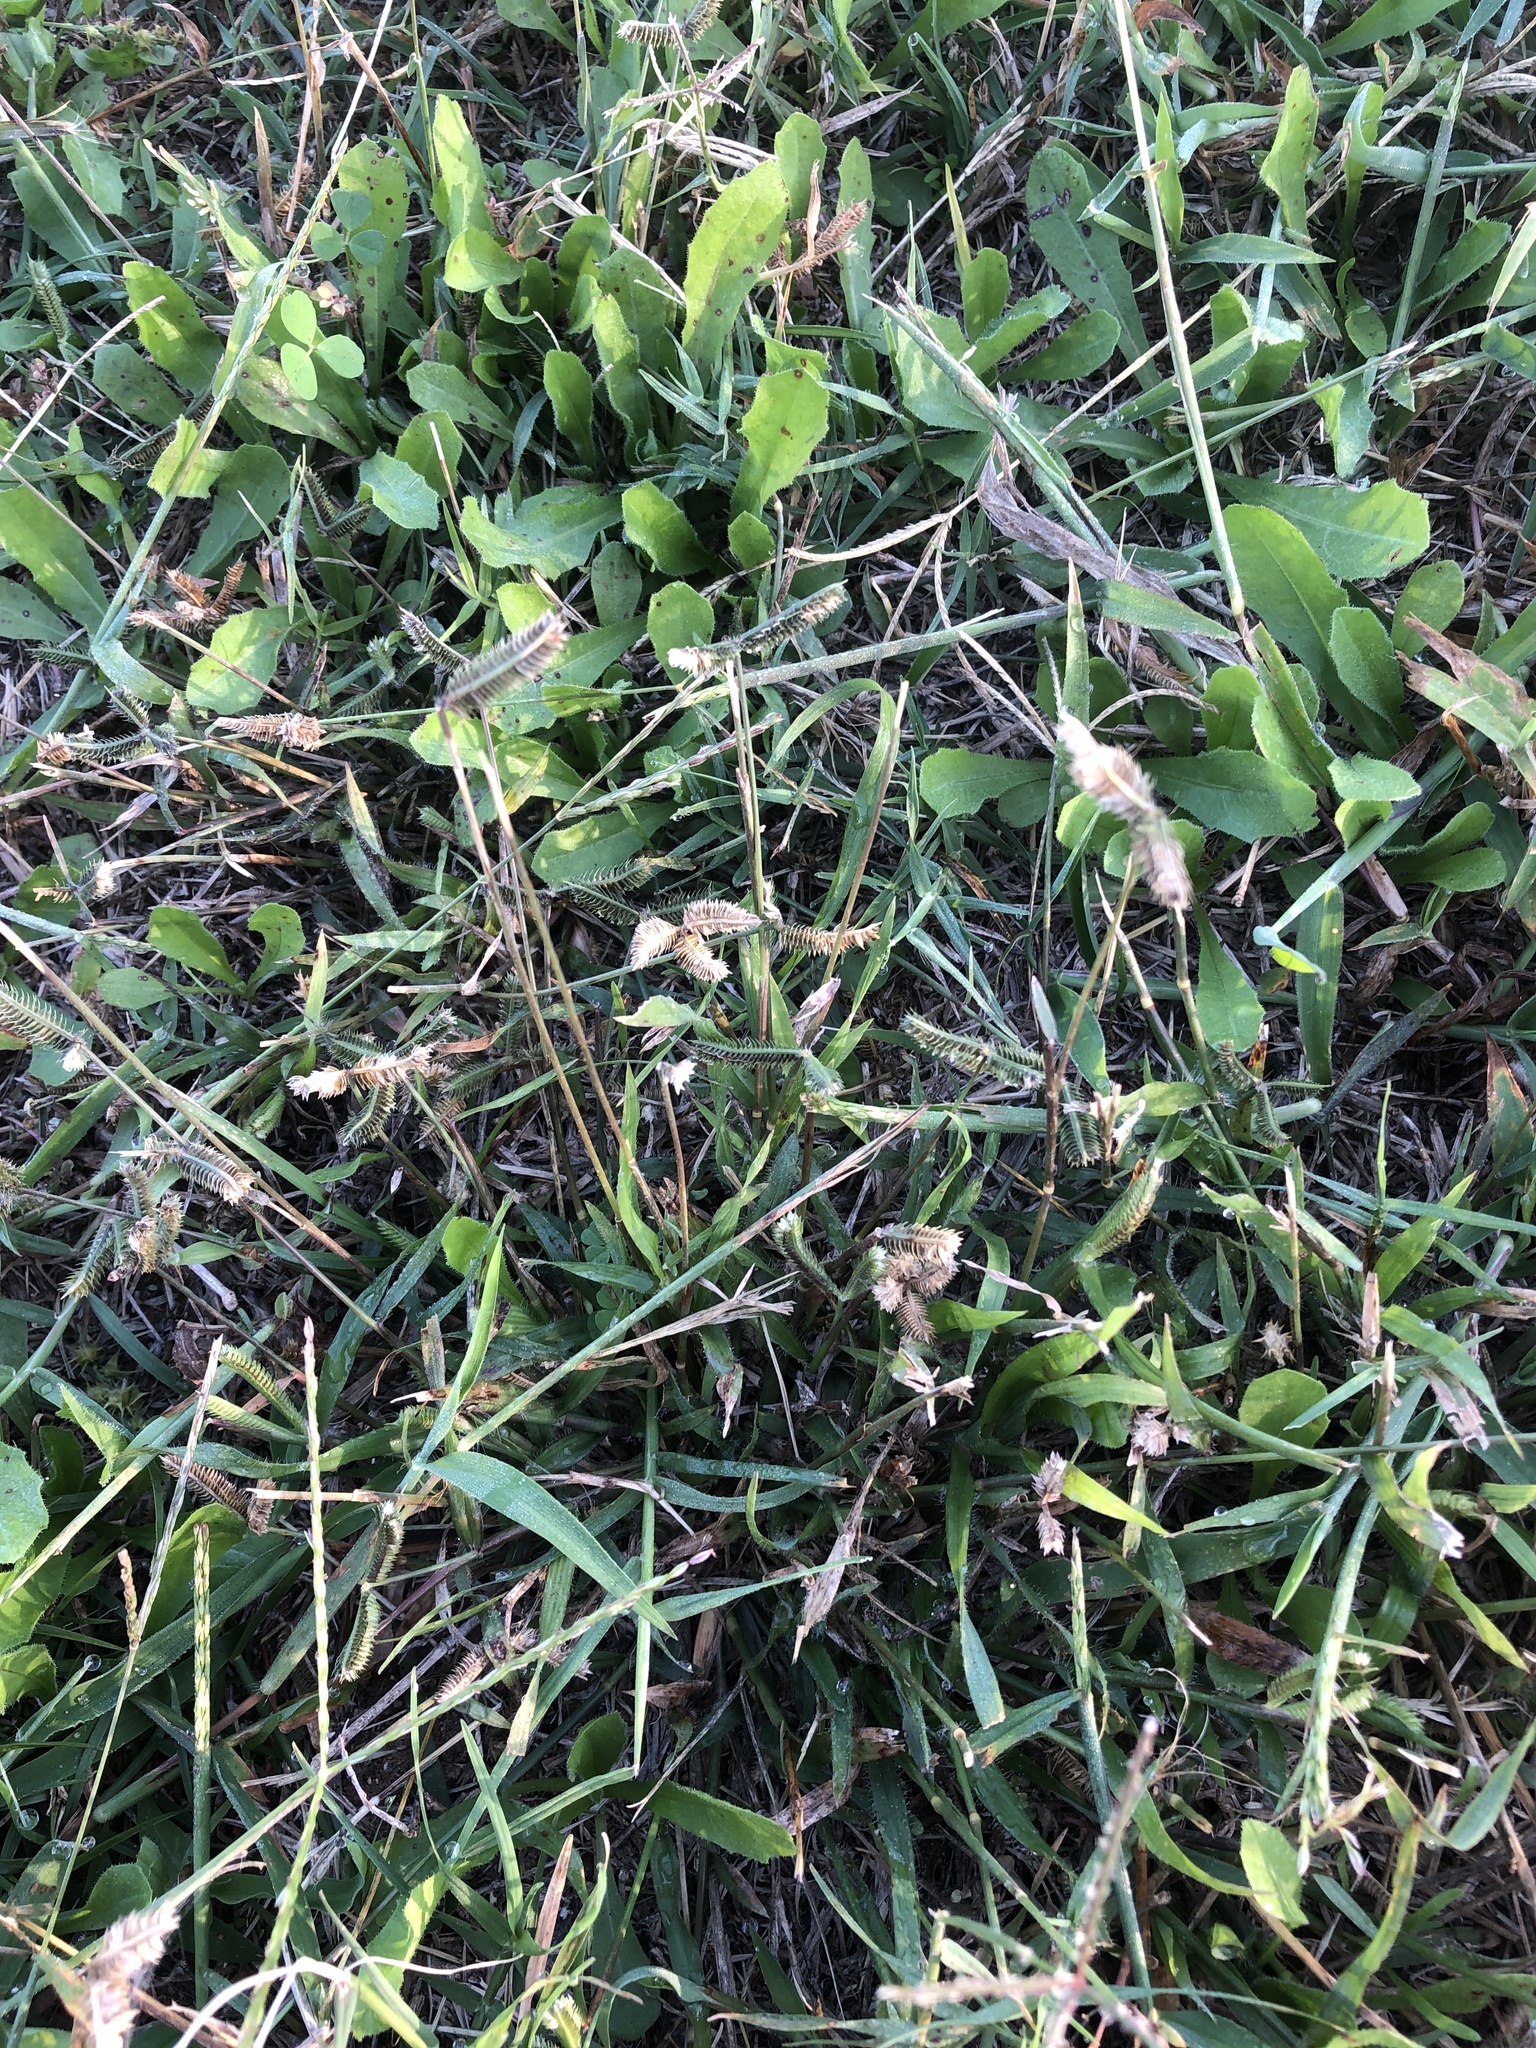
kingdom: Plantae
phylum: Tracheophyta
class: Liliopsida
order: Poales
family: Poaceae
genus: Dactyloctenium
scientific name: Dactyloctenium aegyptium
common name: Egyptian grass
